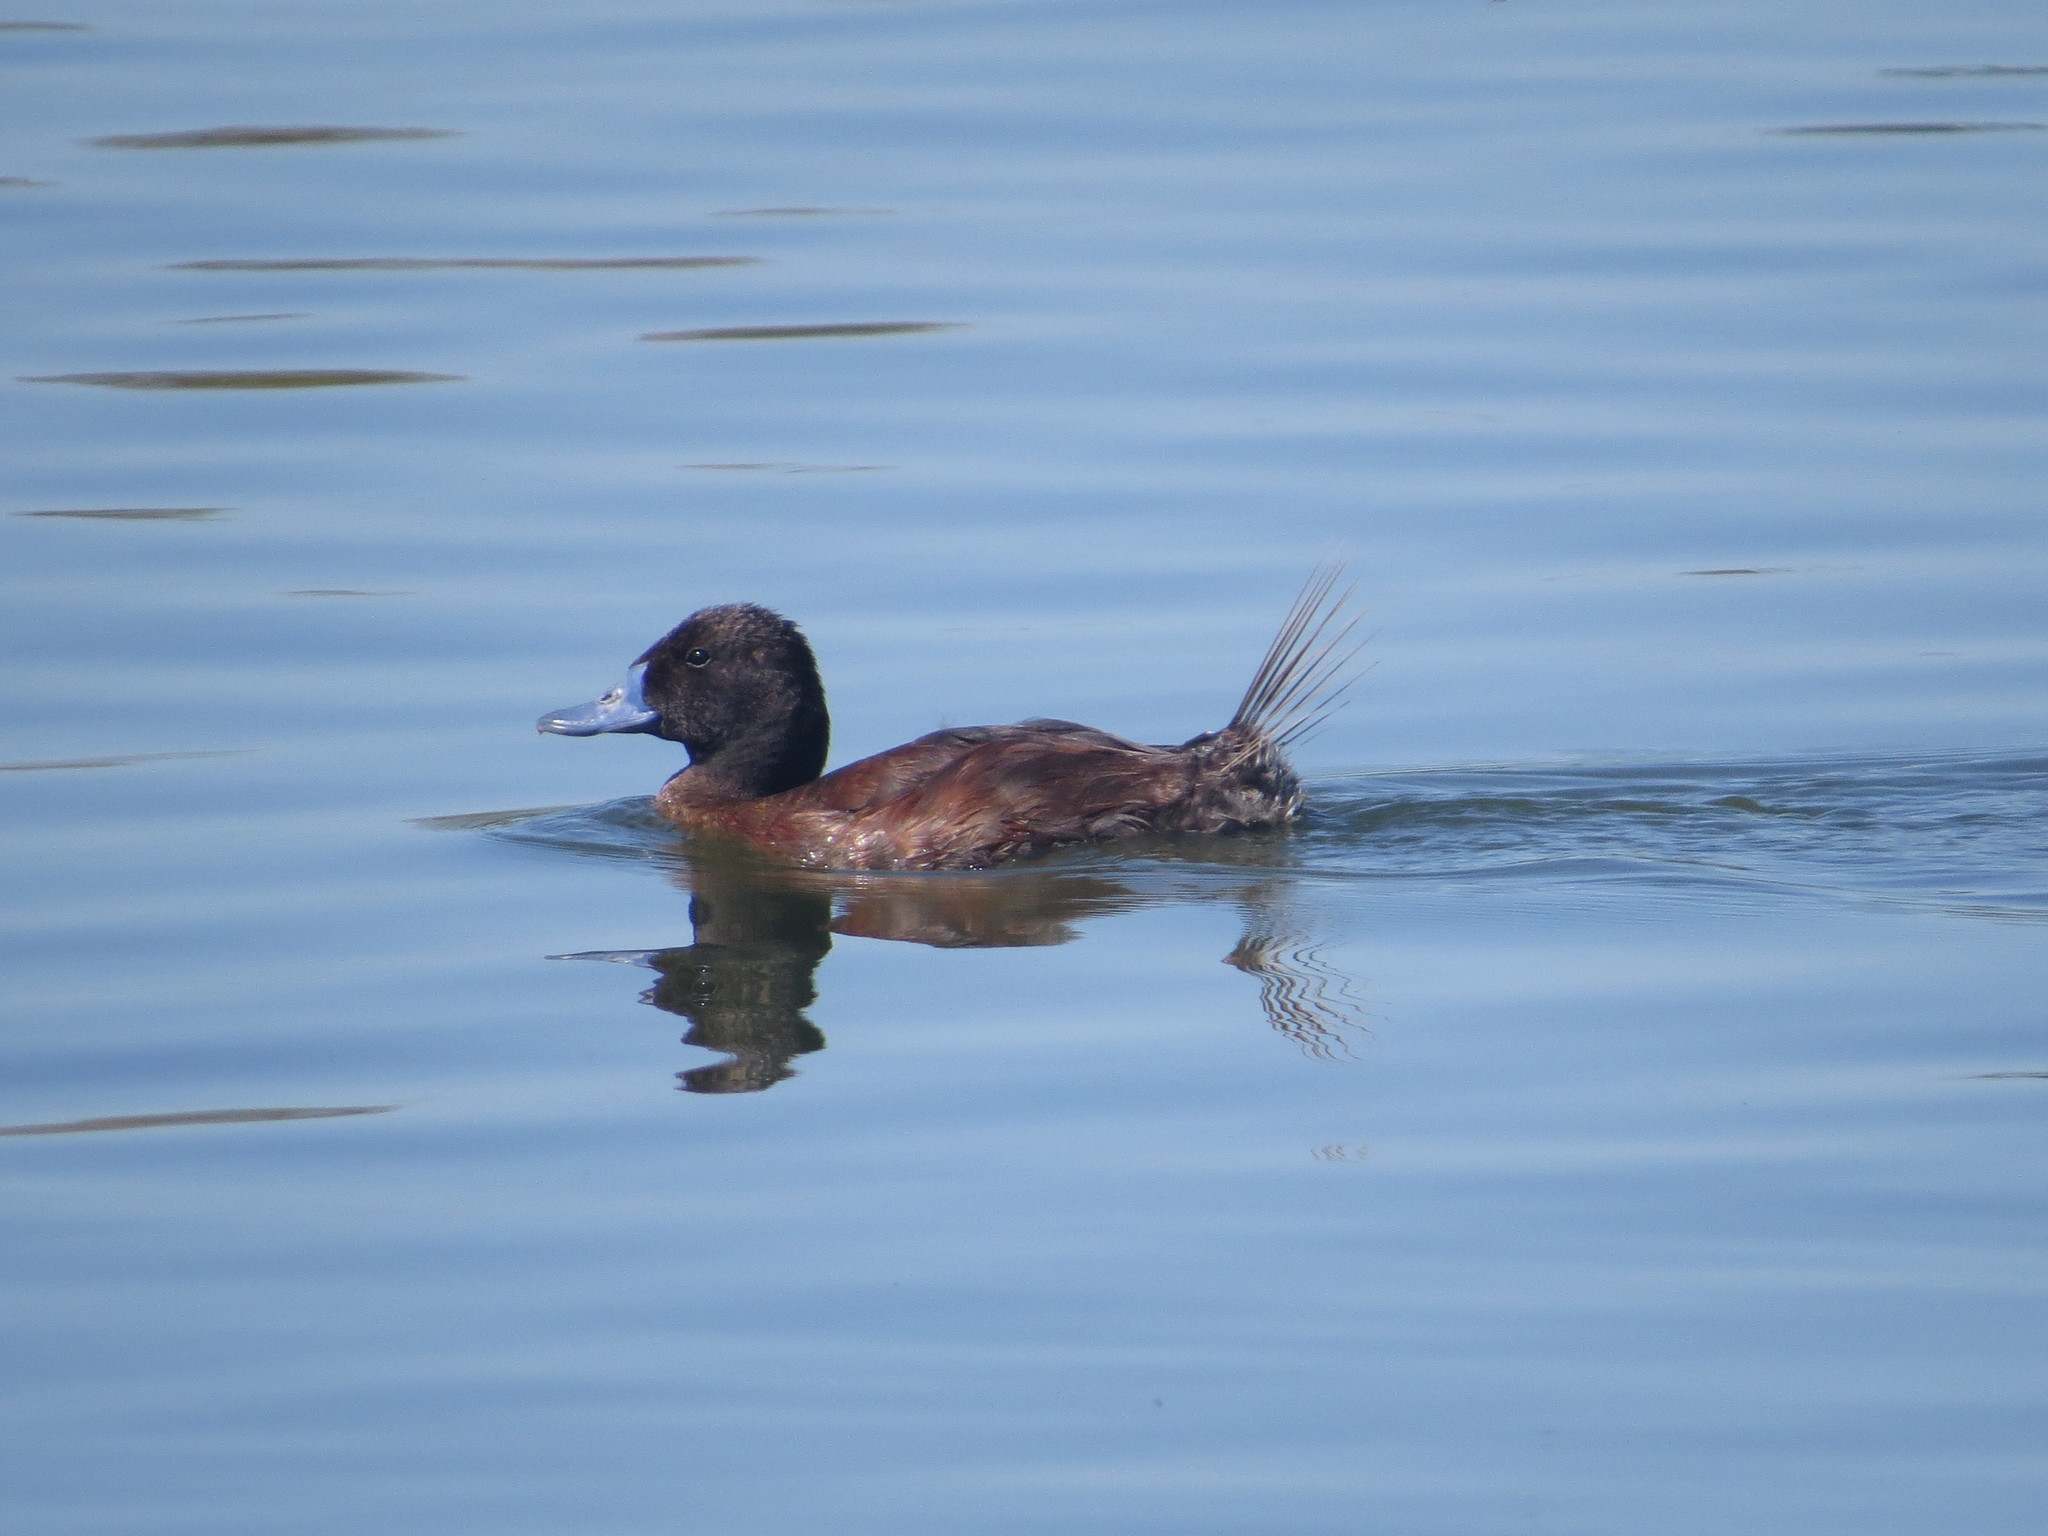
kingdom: Animalia
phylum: Chordata
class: Aves
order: Anseriformes
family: Anatidae
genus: Oxyura
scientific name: Oxyura vittata
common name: Lake duck
